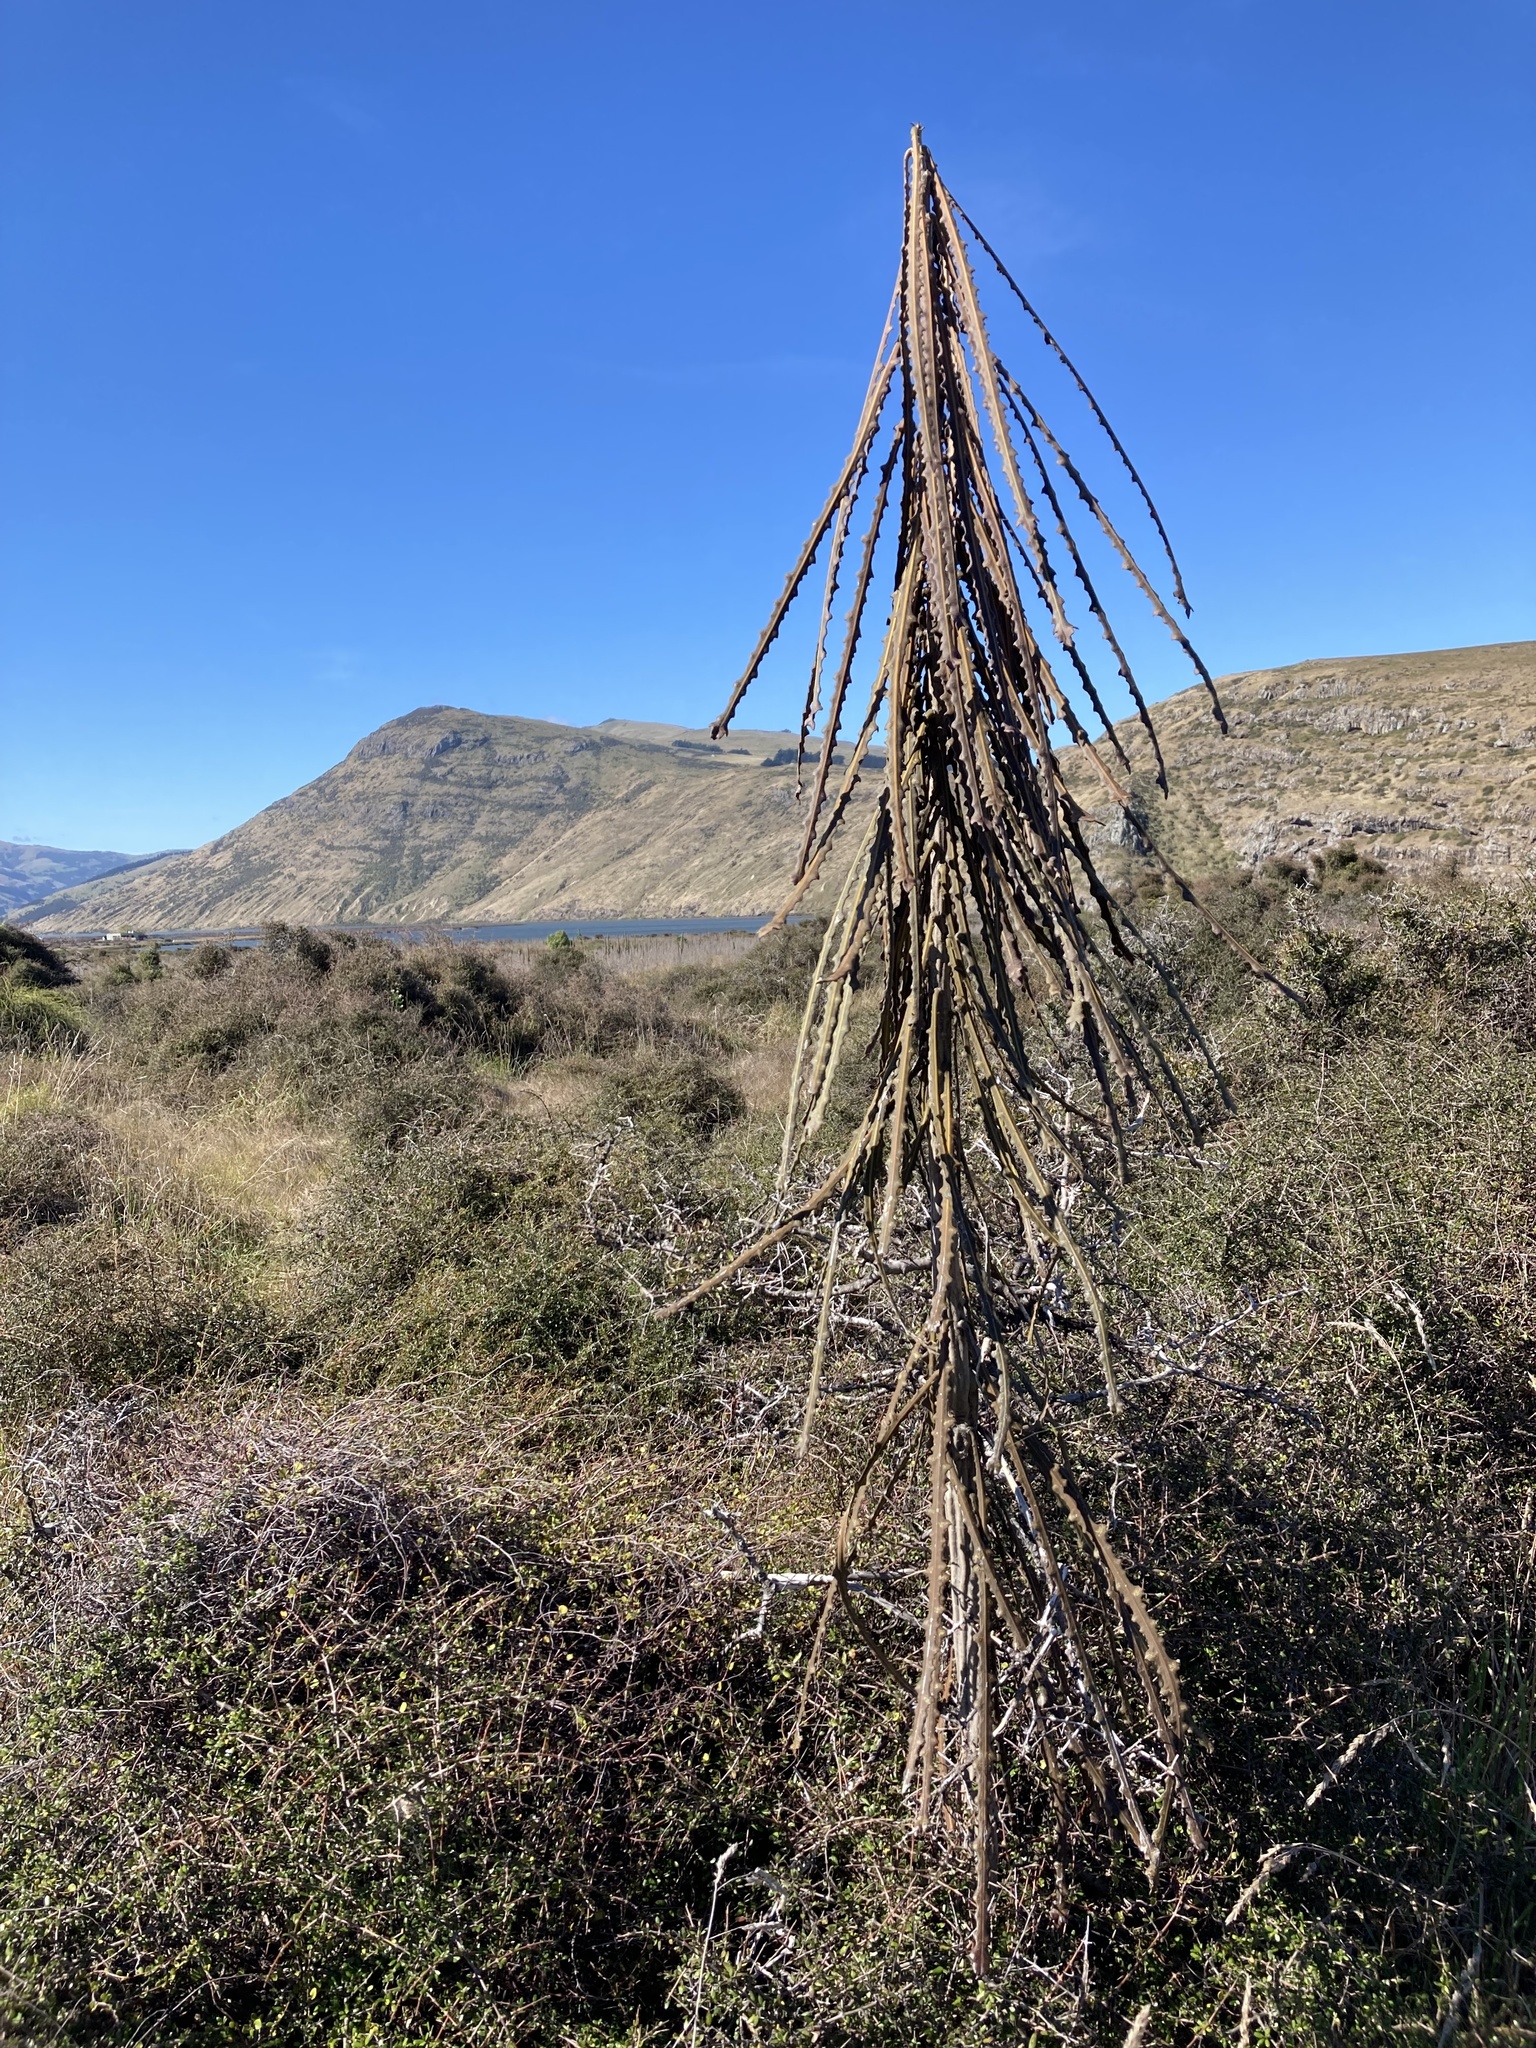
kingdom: Plantae
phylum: Tracheophyta
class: Magnoliopsida
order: Apiales
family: Araliaceae
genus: Pseudopanax
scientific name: Pseudopanax ferox
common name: Fierce lancewood
